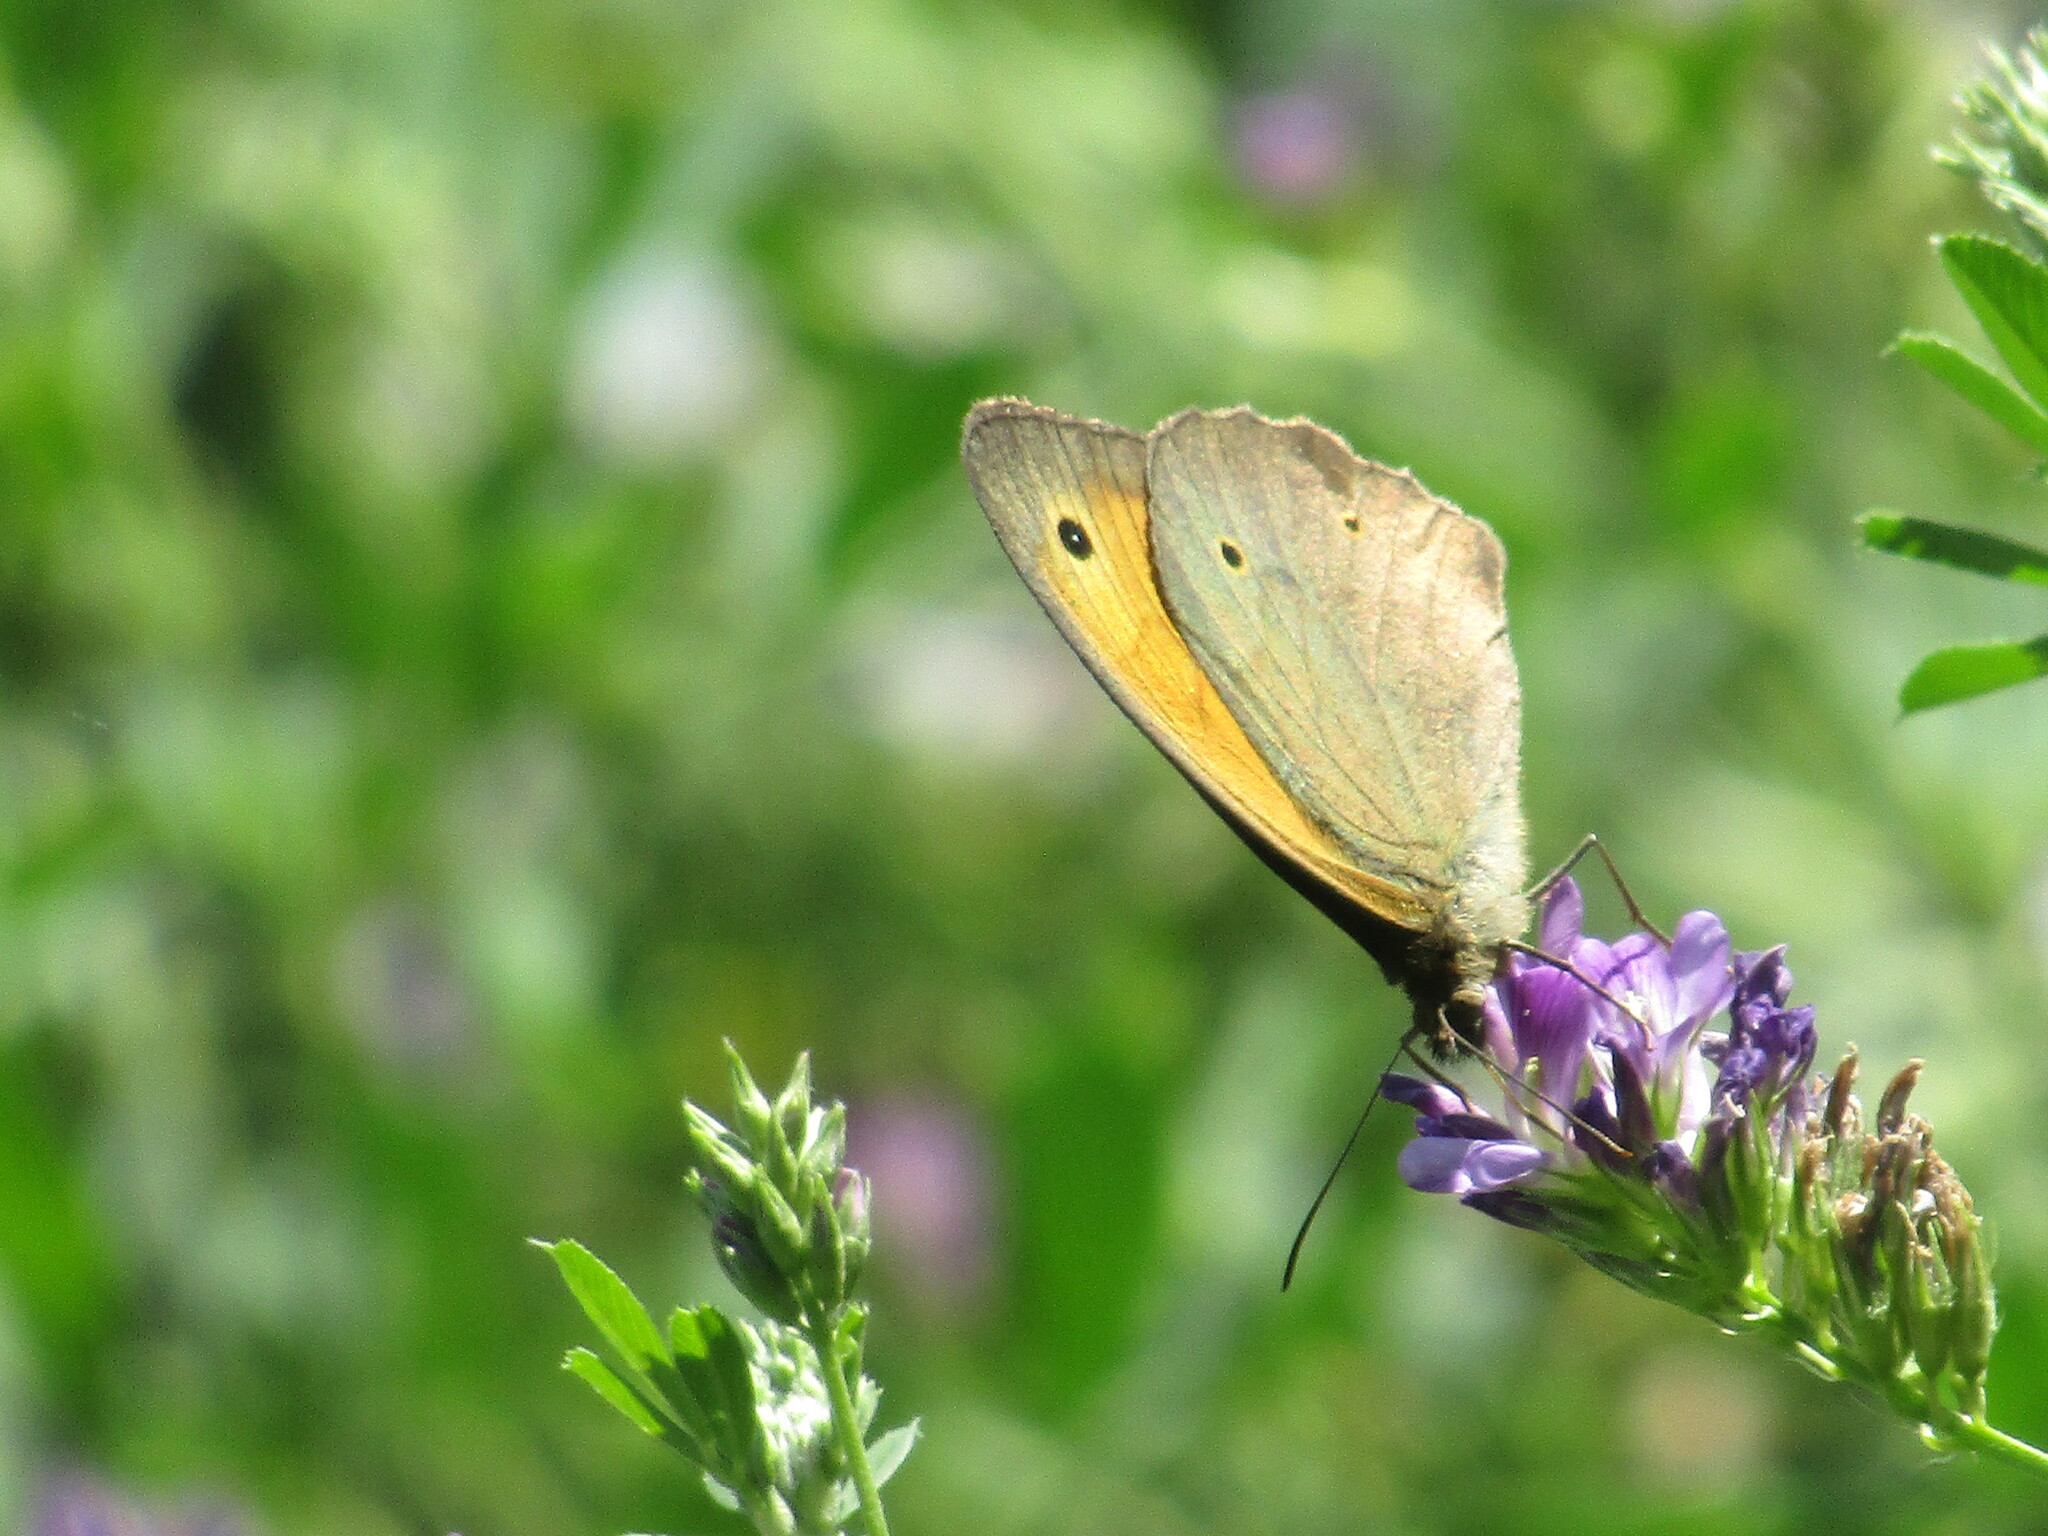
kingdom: Animalia
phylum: Arthropoda
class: Insecta
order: Lepidoptera
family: Nymphalidae
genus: Maniola
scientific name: Maniola jurtina
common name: Meadow brown
